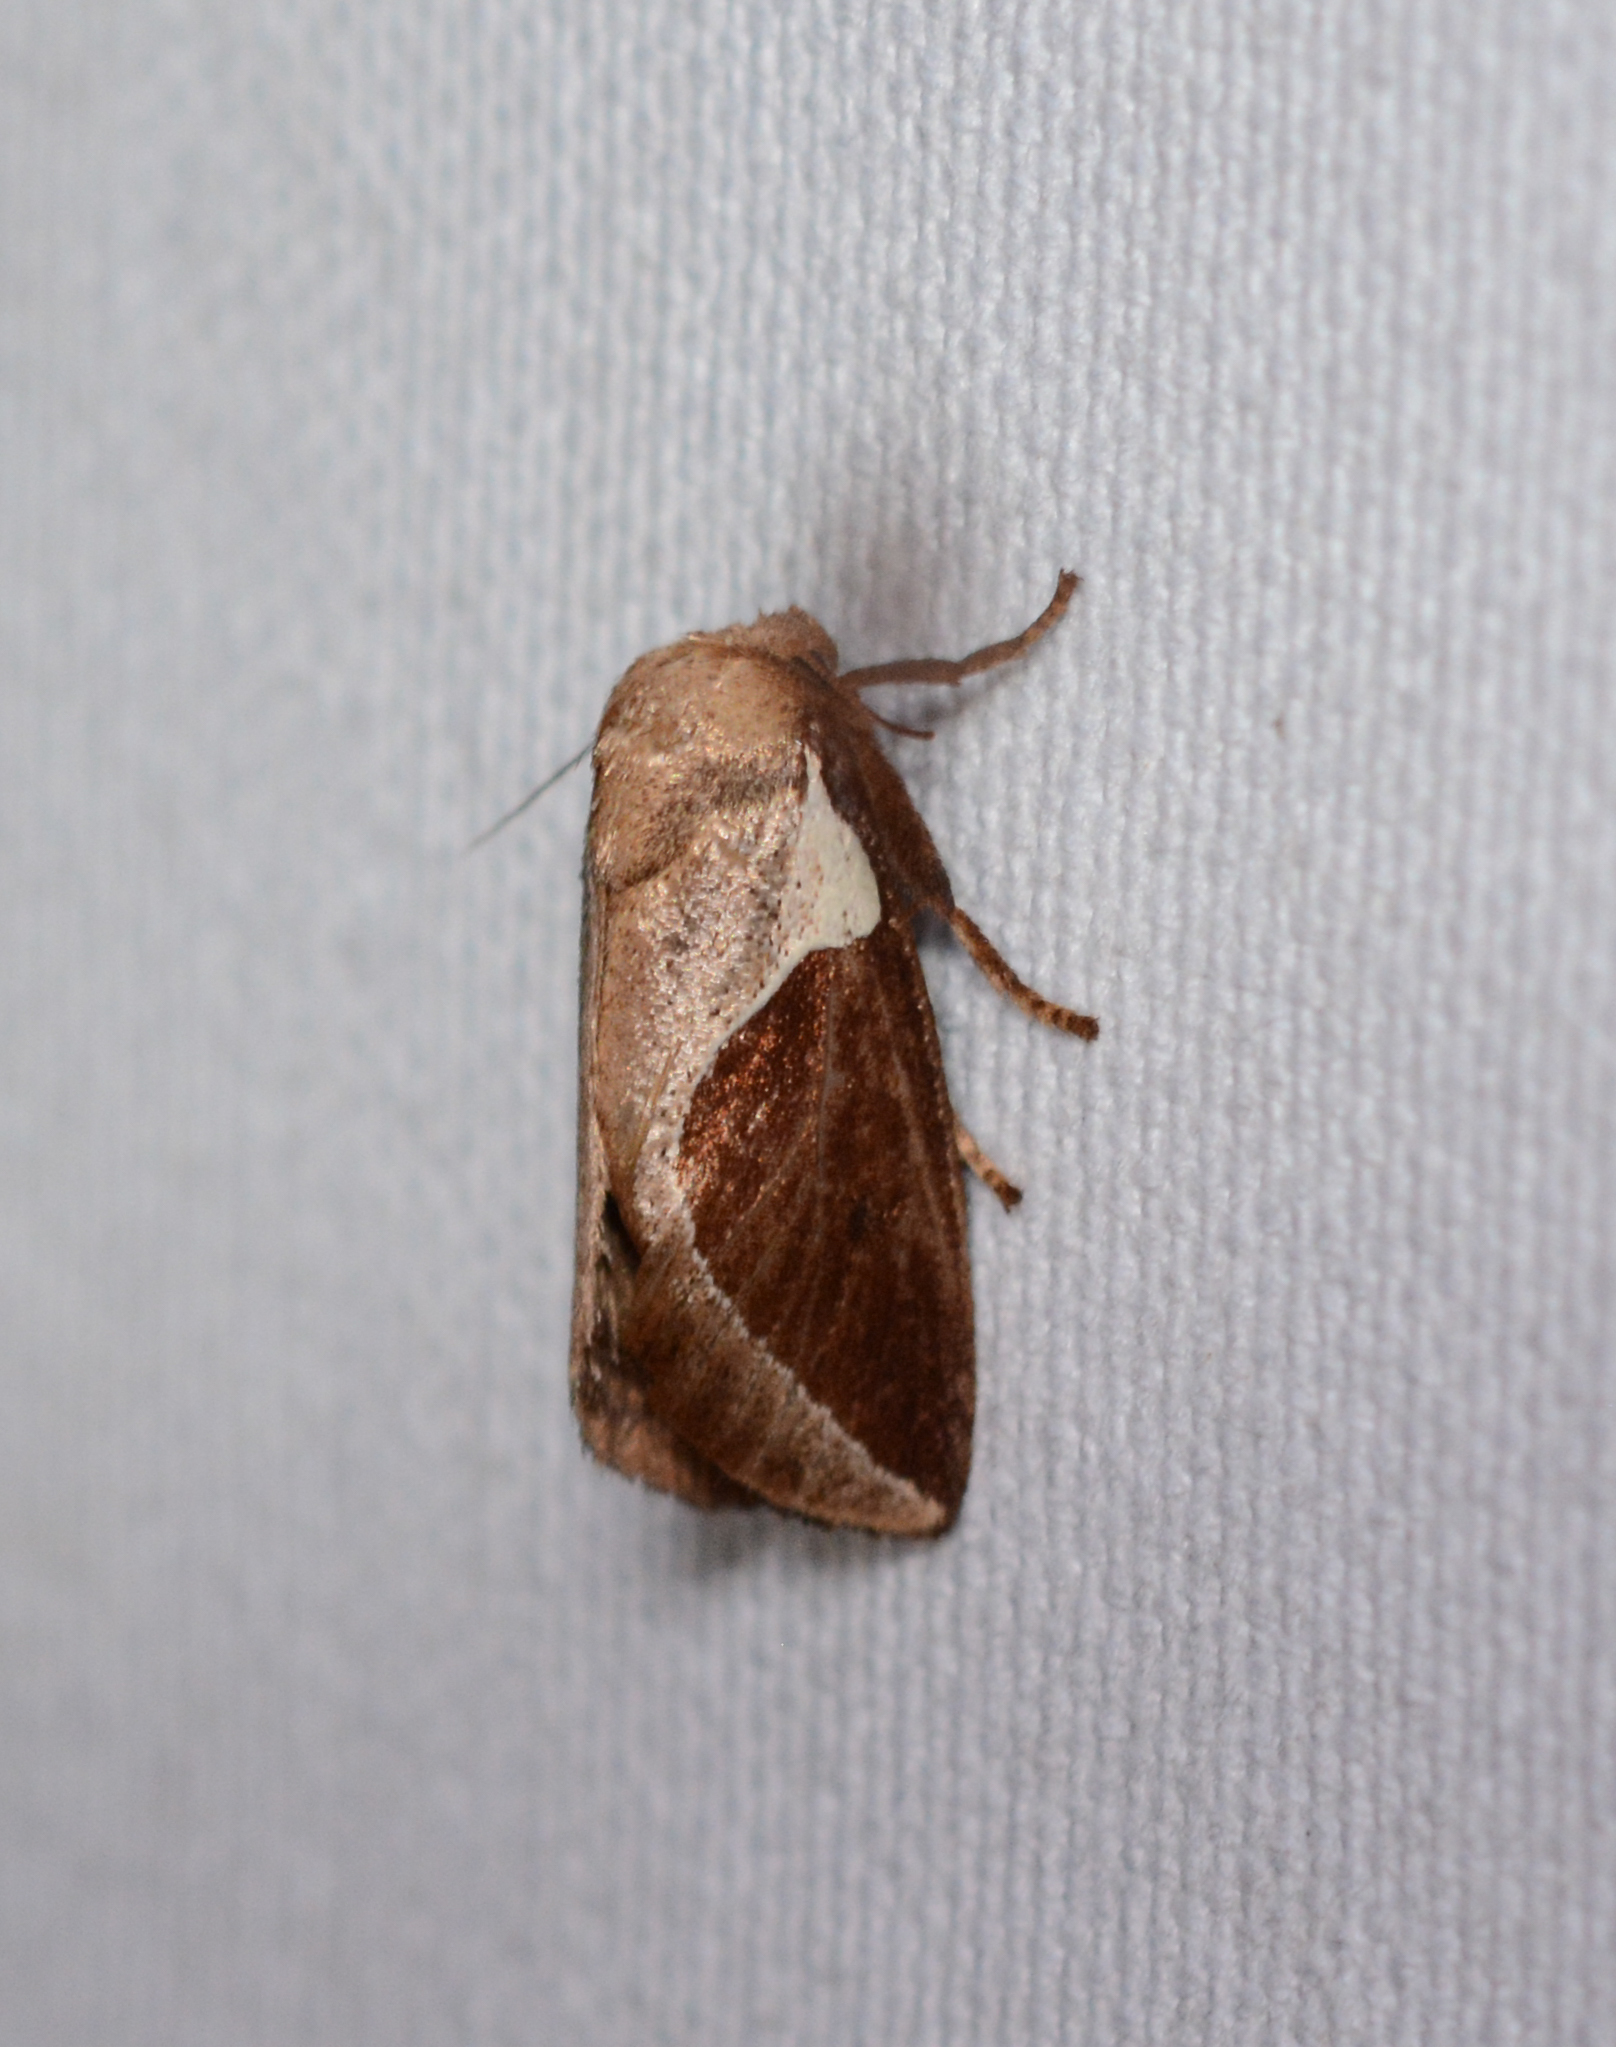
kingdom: Animalia
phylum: Arthropoda
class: Insecta
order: Lepidoptera
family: Limacodidae
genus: Prolimacodes
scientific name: Prolimacodes badia
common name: Skiff moth
